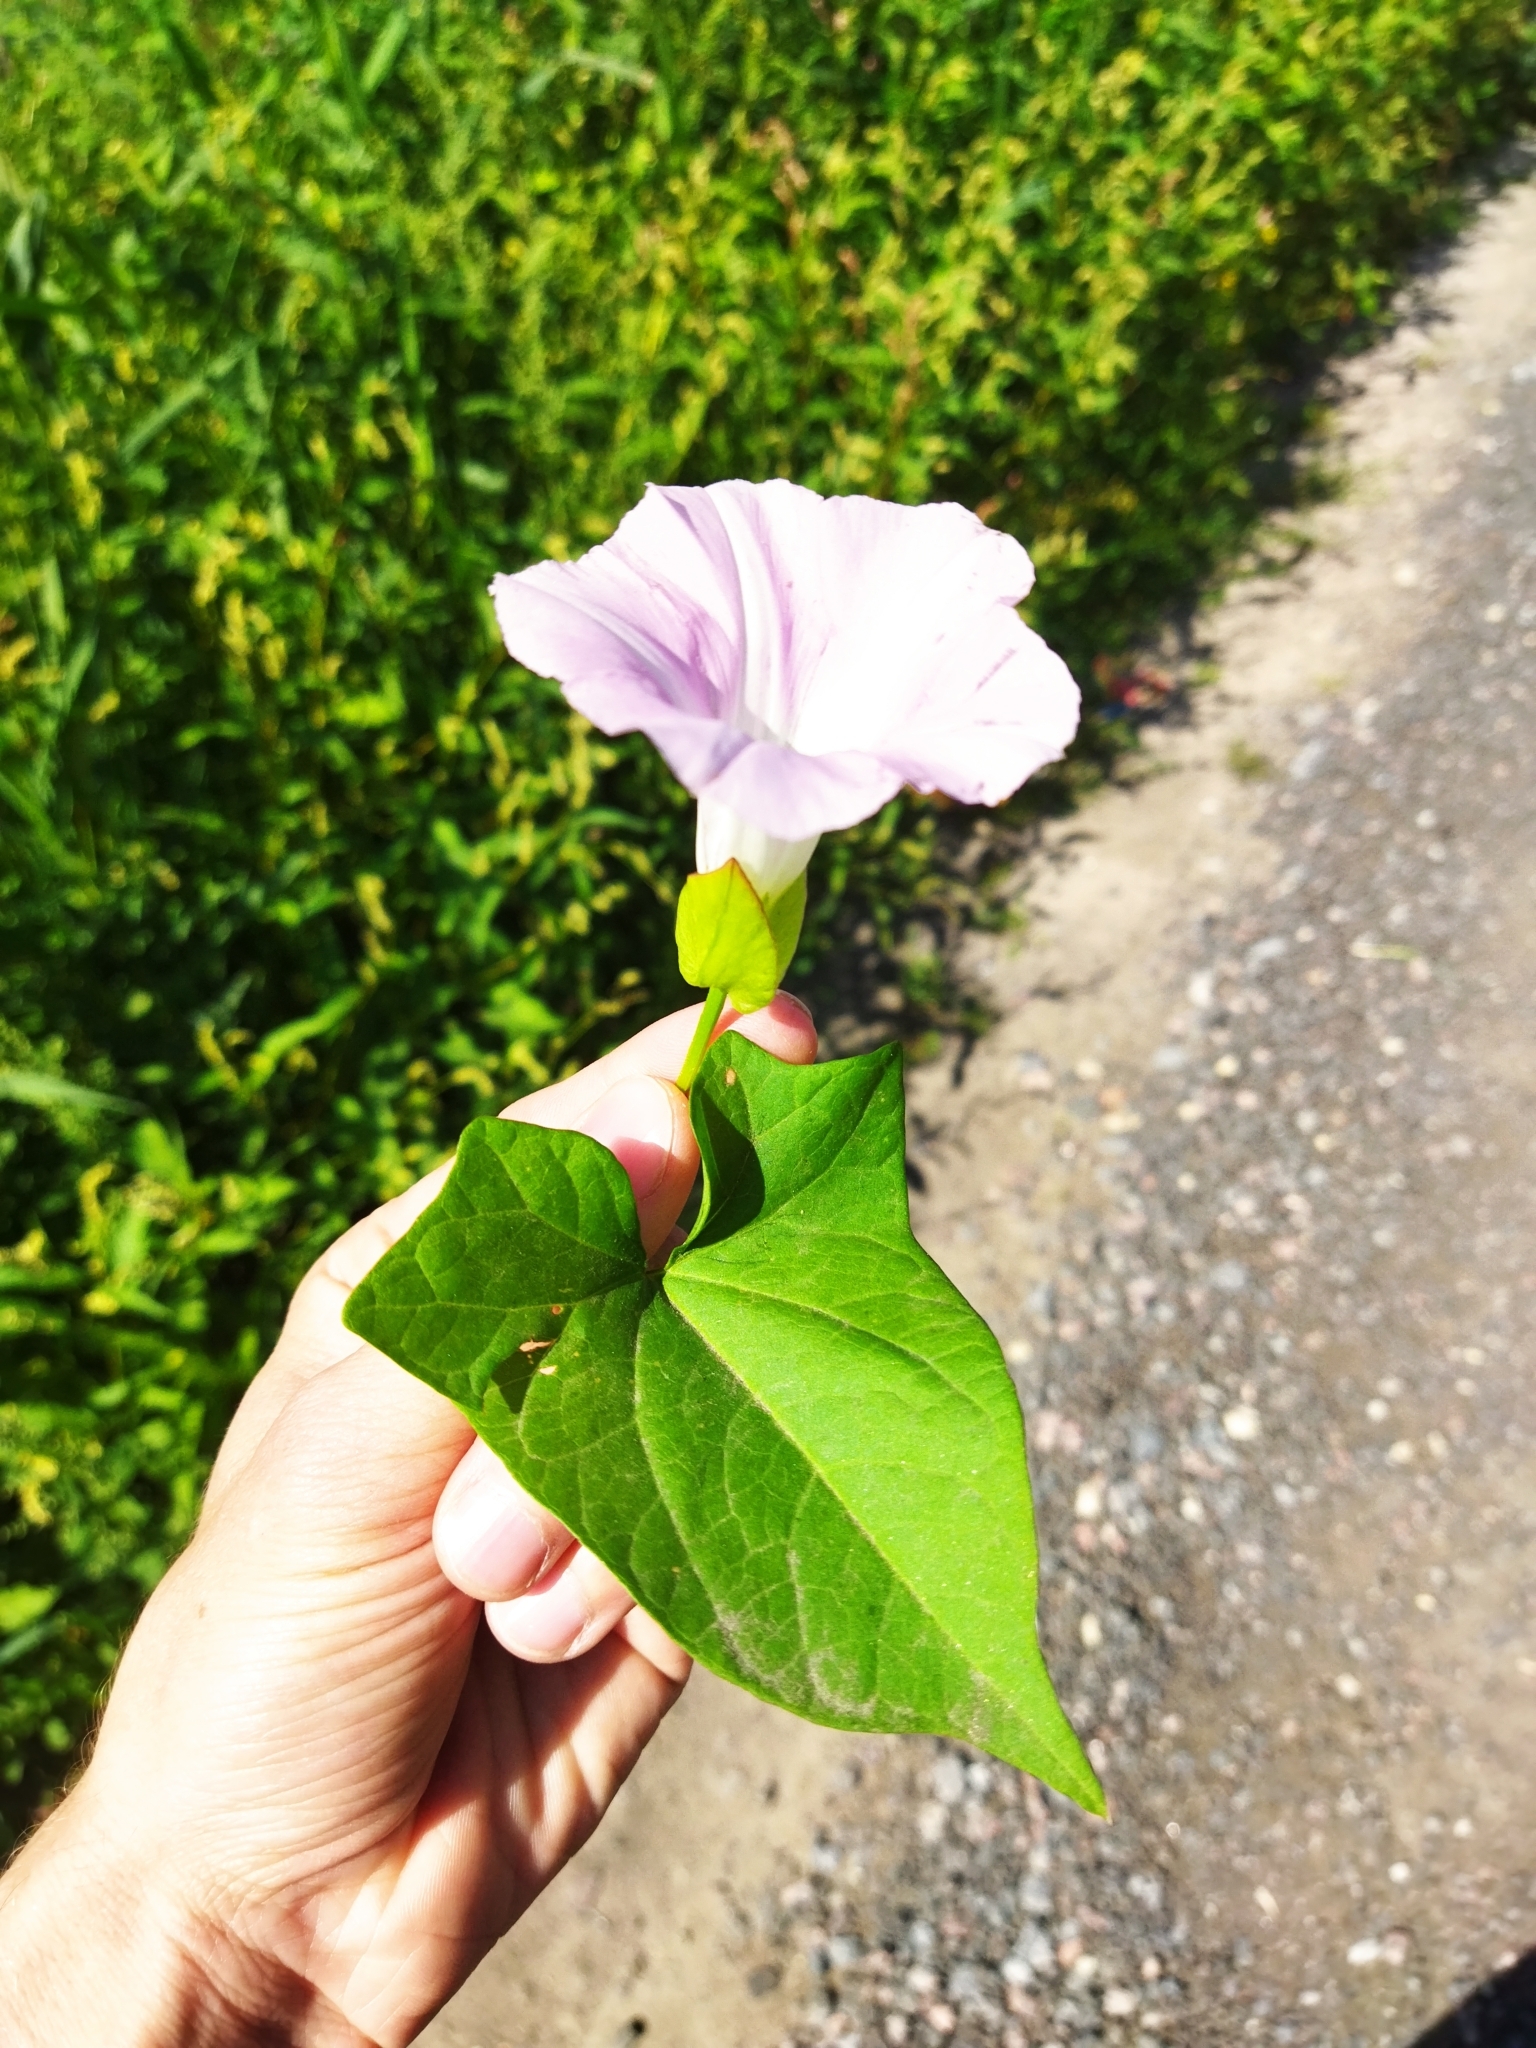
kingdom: Plantae
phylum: Tracheophyta
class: Magnoliopsida
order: Solanales
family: Convolvulaceae
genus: Calystegia
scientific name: Calystegia sepium
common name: Hedge bindweed
